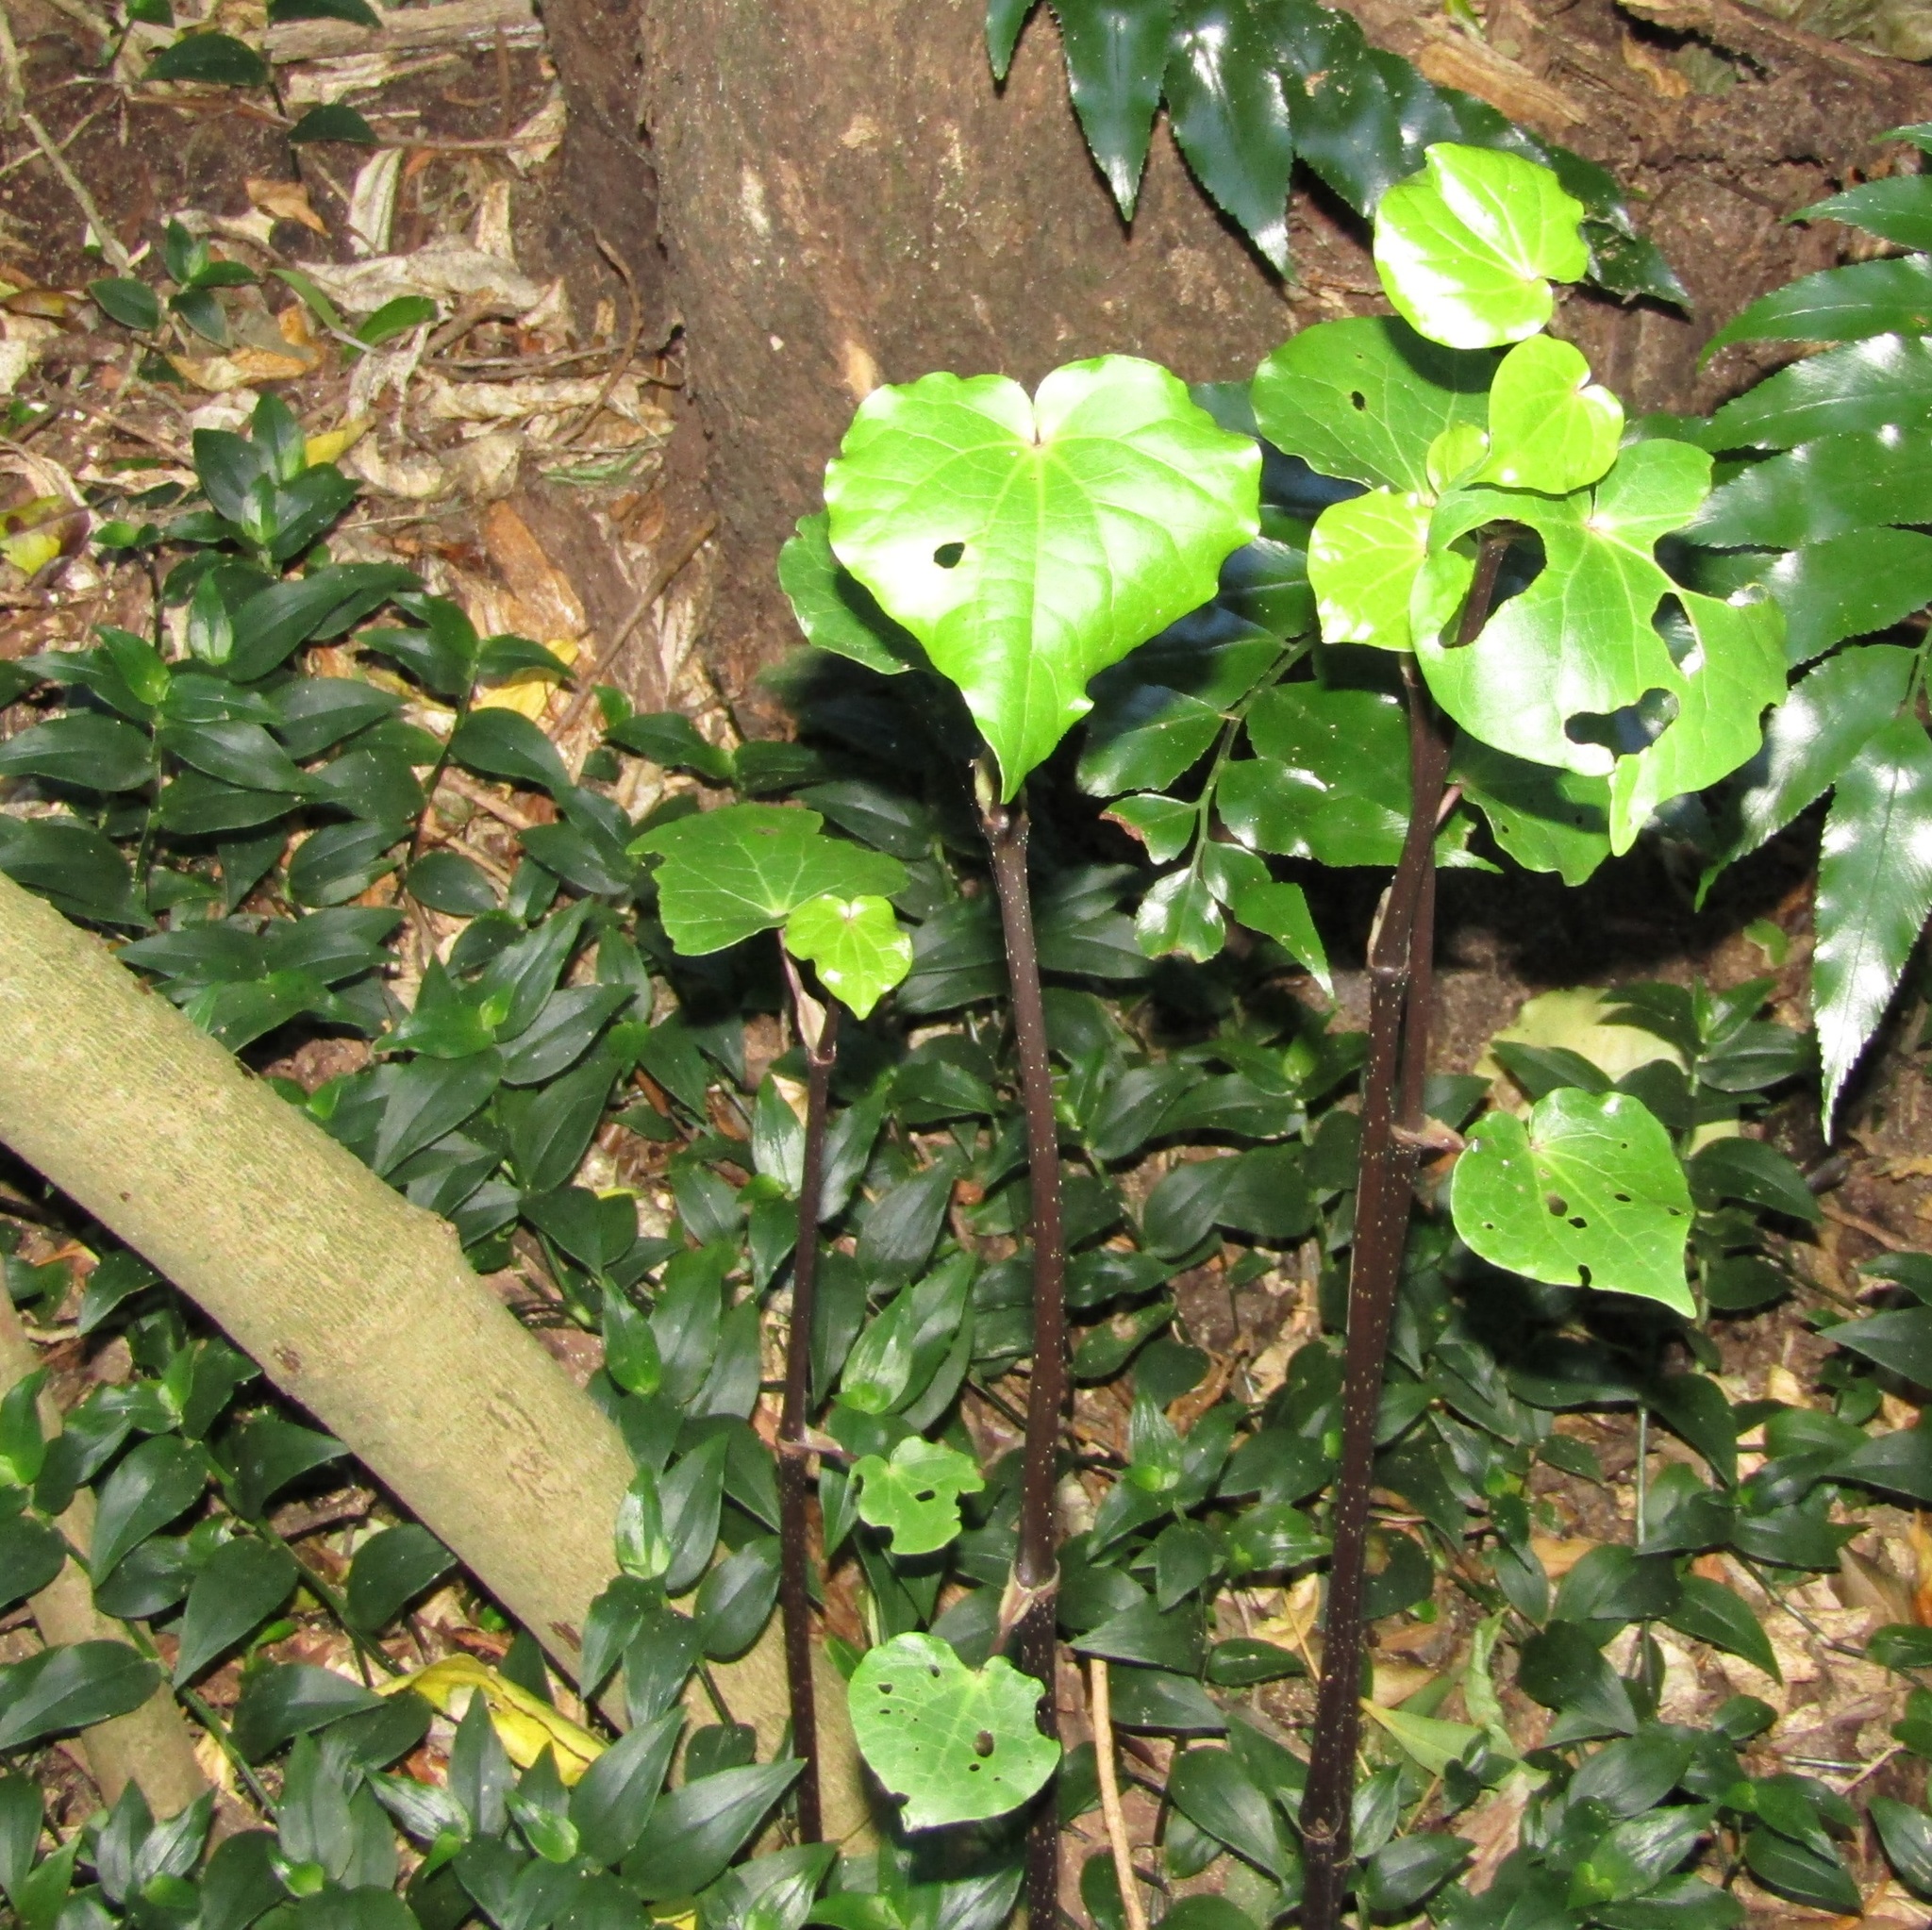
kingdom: Plantae
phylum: Tracheophyta
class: Magnoliopsida
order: Piperales
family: Piperaceae
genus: Macropiper
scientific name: Macropiper excelsum
